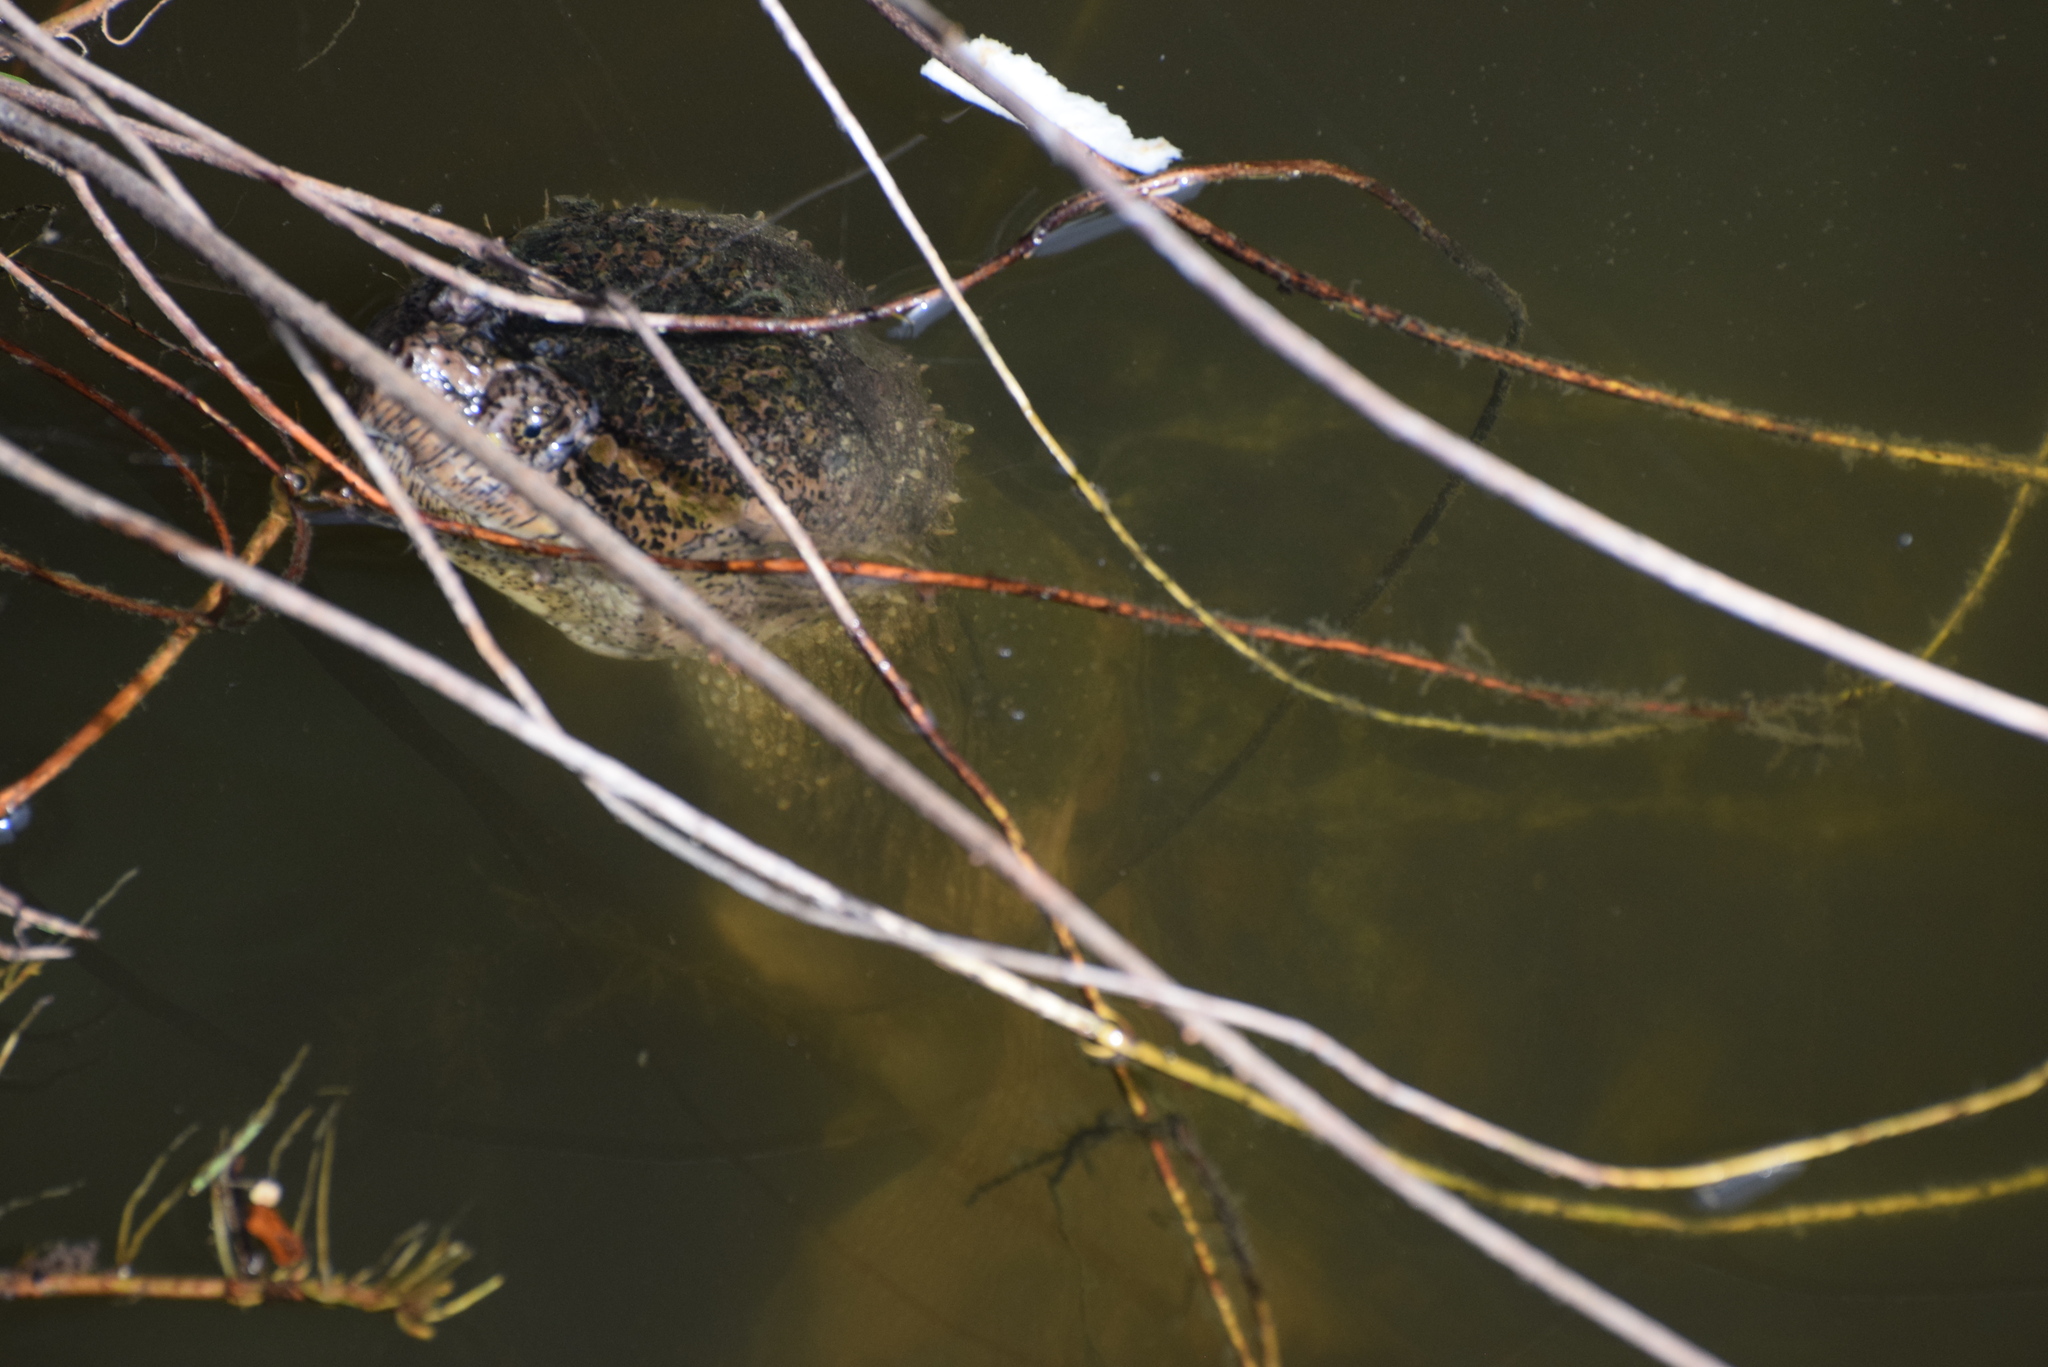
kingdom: Animalia
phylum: Chordata
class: Testudines
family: Chelydridae
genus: Chelydra
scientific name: Chelydra serpentina
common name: Common snapping turtle
